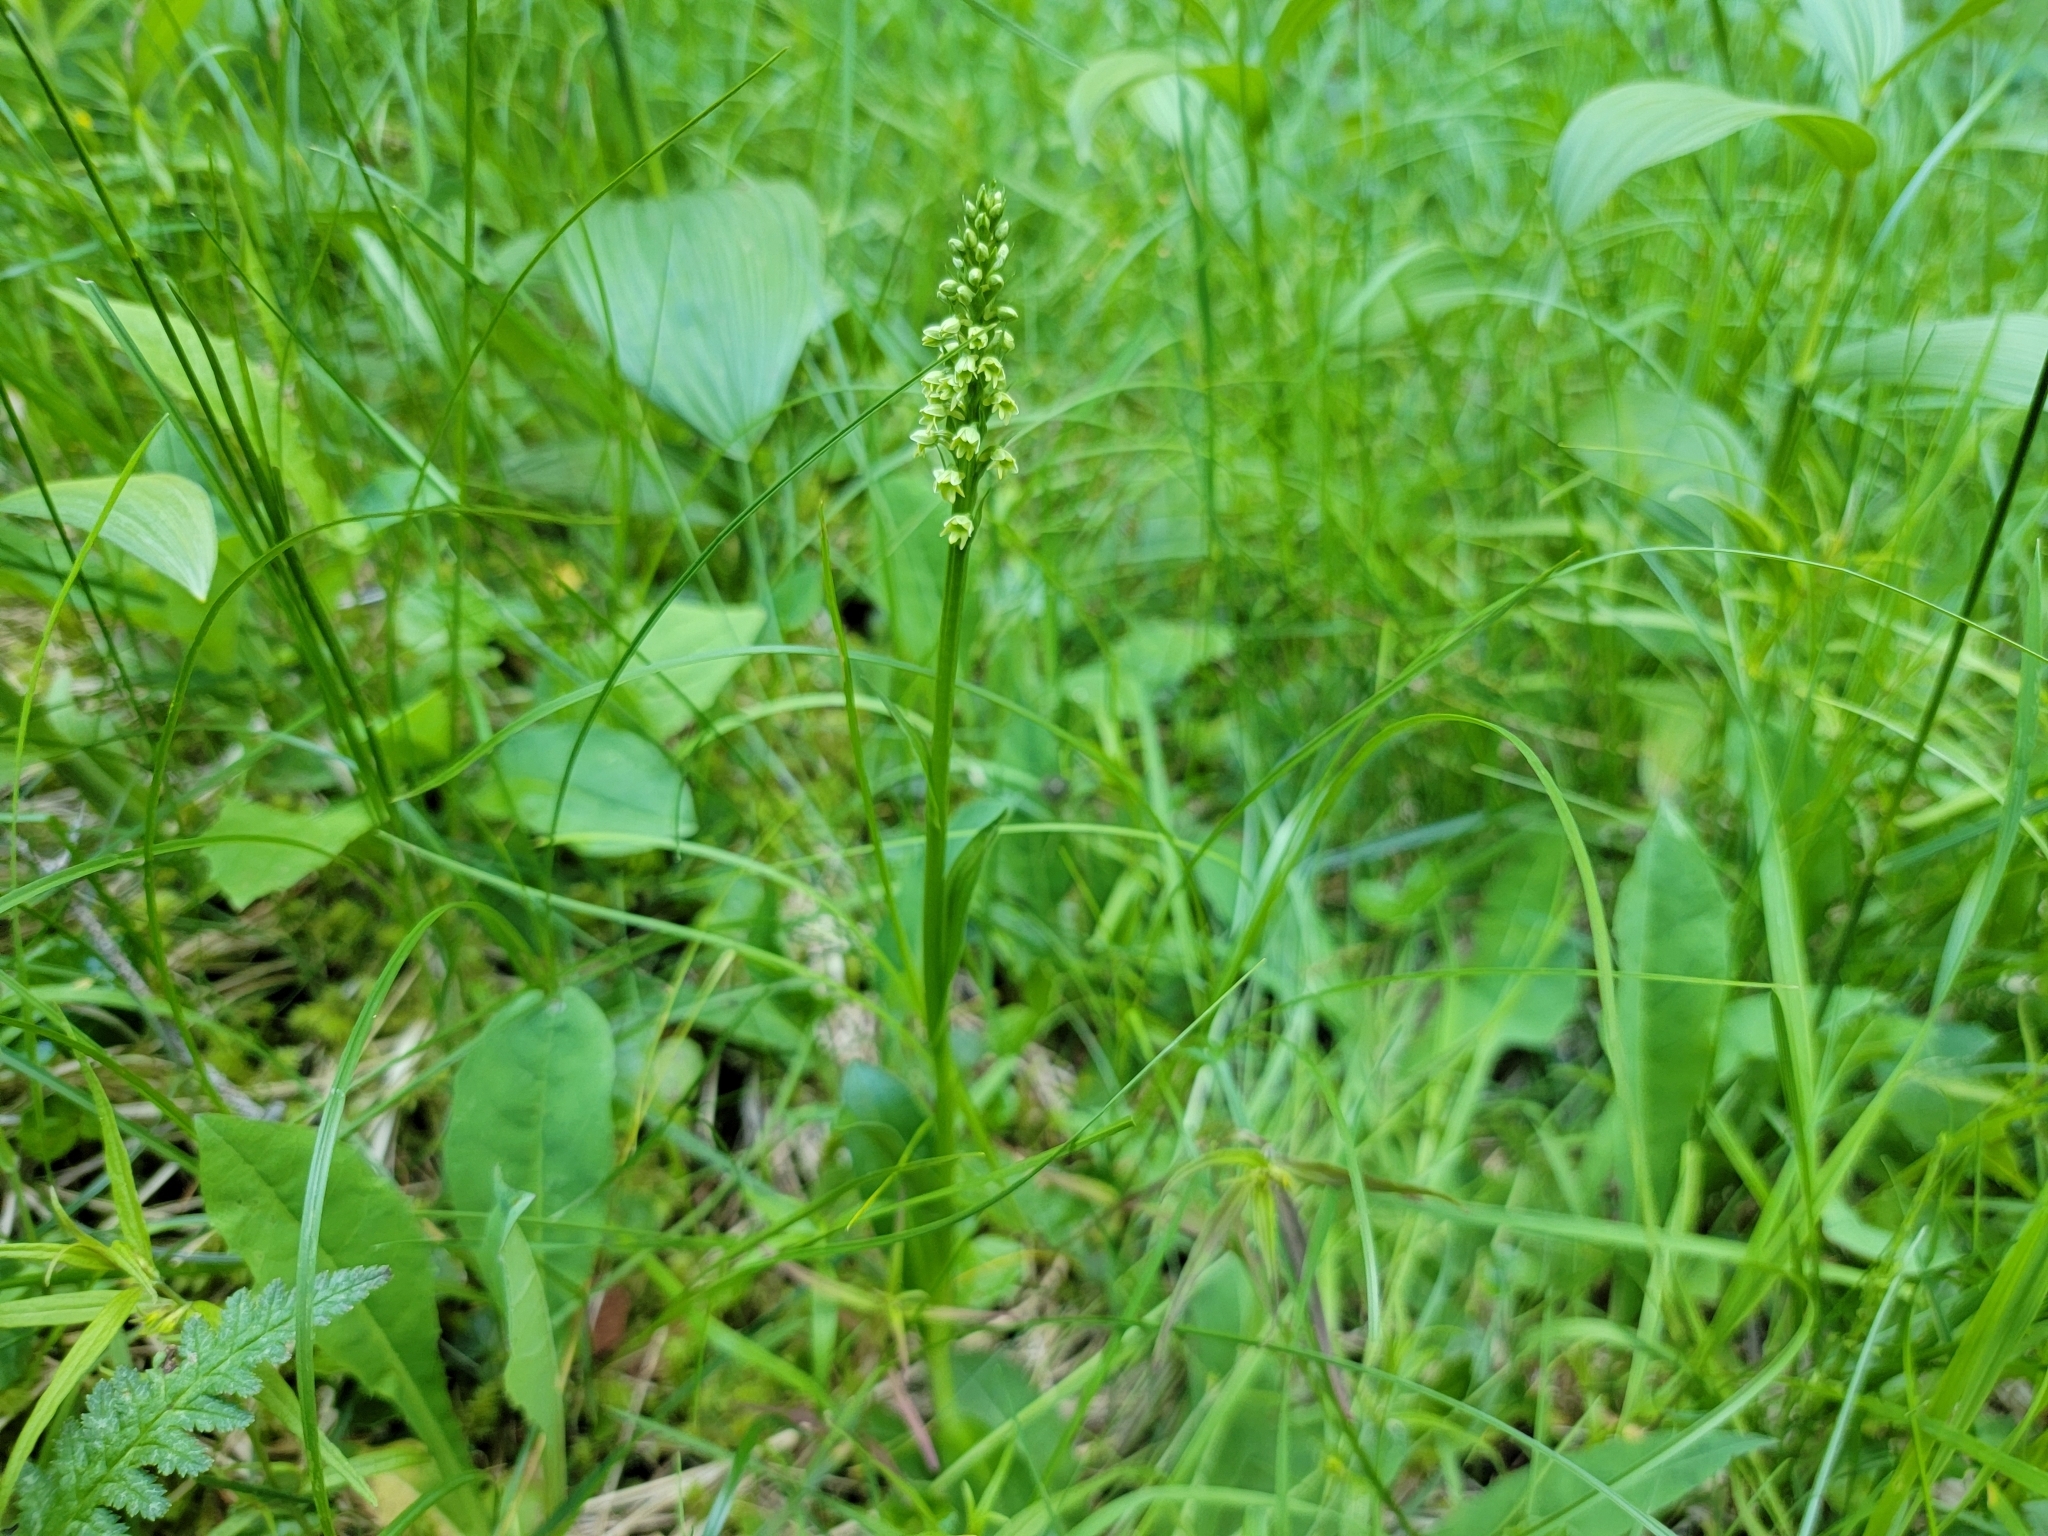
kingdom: Plantae
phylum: Tracheophyta
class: Liliopsida
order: Asparagales
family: Orchidaceae
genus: Pseudorchis
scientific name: Pseudorchis albida
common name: Small-white orchid
